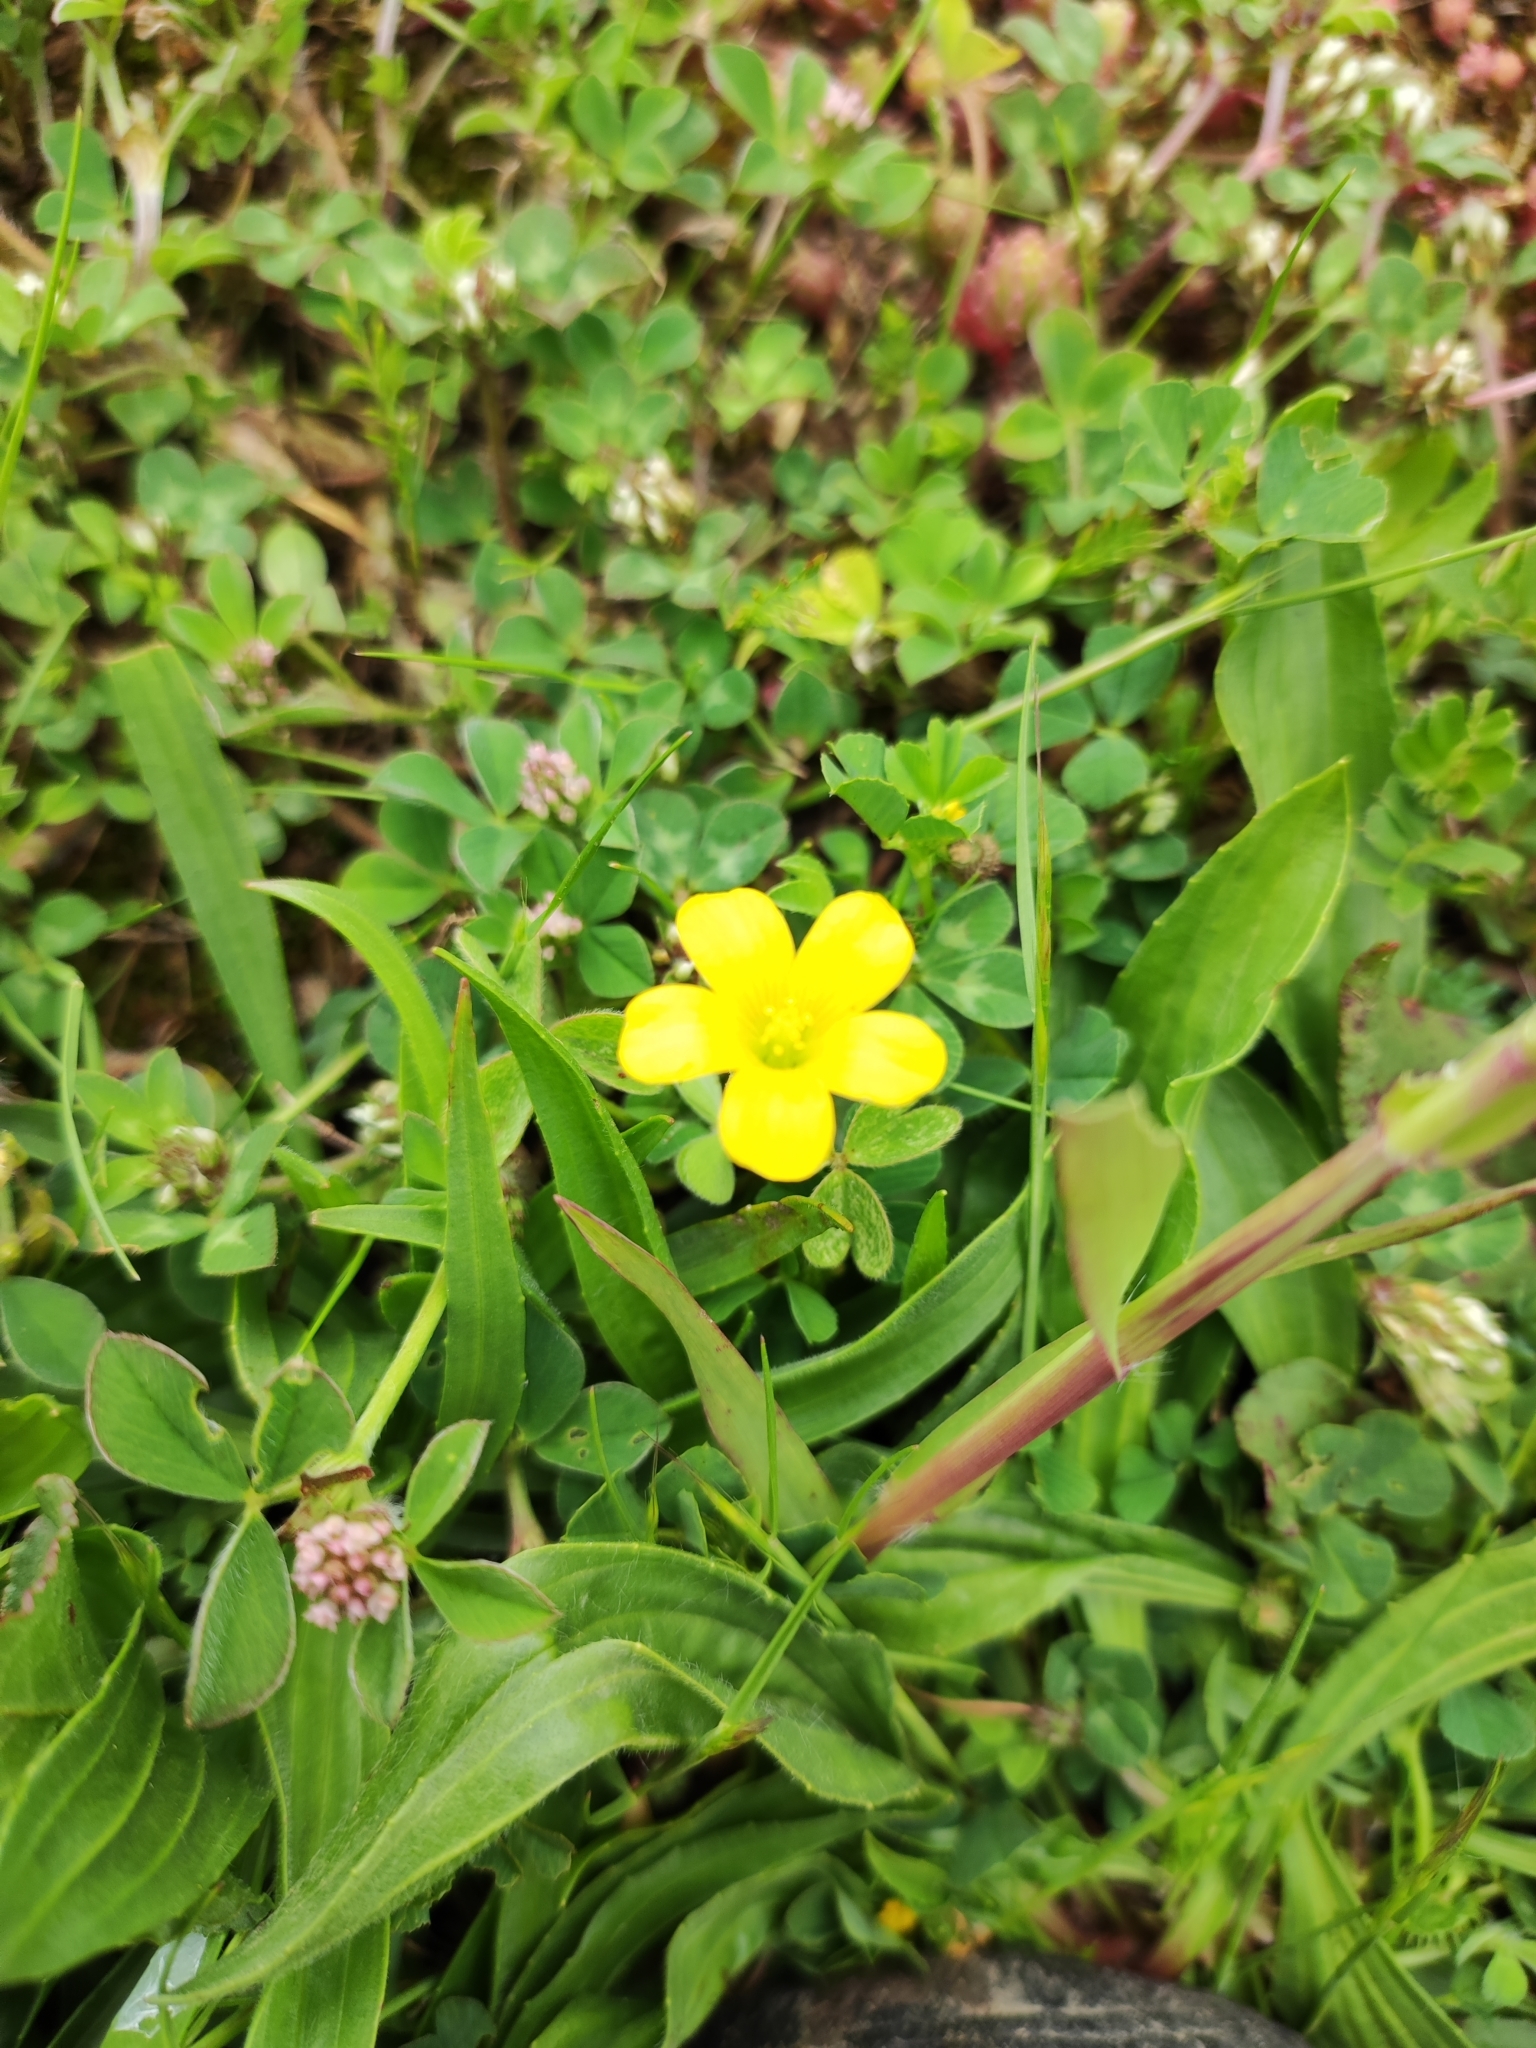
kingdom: Plantae
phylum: Tracheophyta
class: Magnoliopsida
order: Oxalidales
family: Oxalidaceae
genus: Oxalis
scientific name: Oxalis corniculata
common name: Procumbent yellow-sorrel
